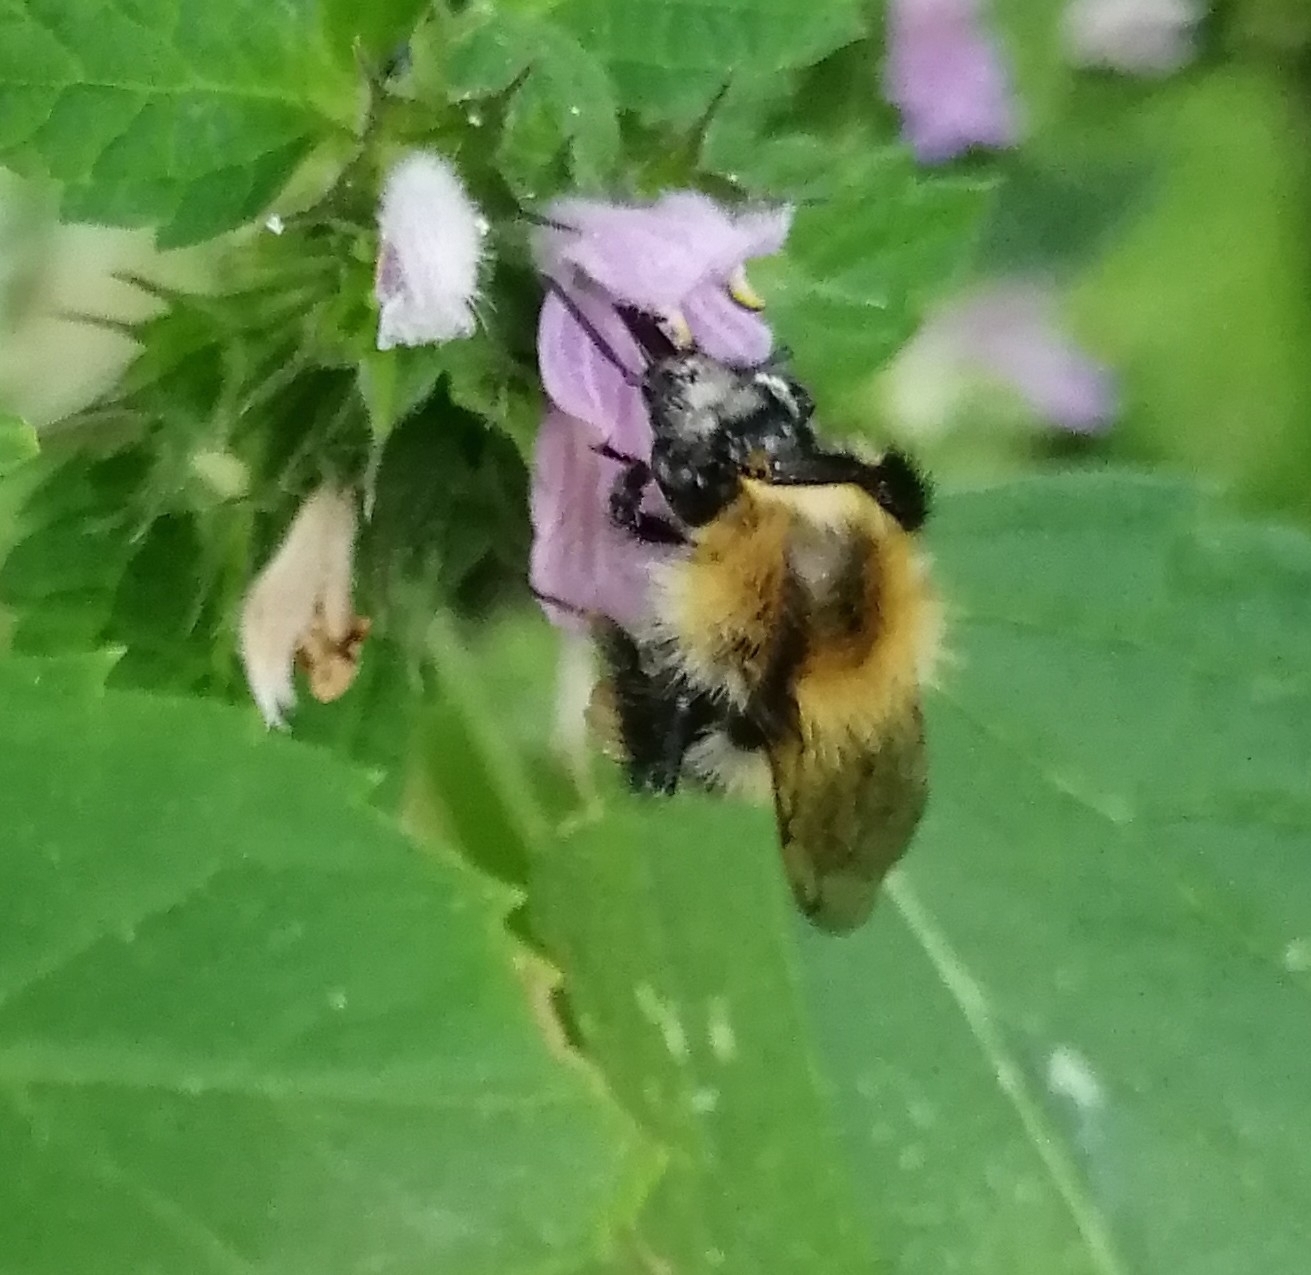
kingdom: Animalia
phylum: Arthropoda
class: Insecta
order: Hymenoptera
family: Apidae
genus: Bombus
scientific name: Bombus pascuorum
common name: Common carder bee
